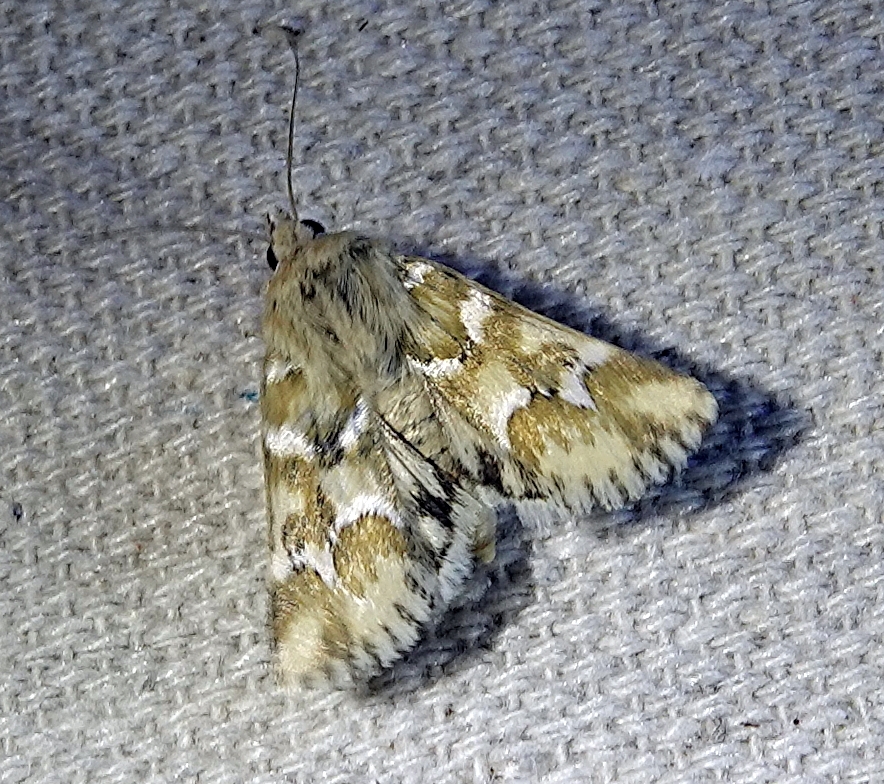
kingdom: Animalia
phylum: Arthropoda
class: Insecta
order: Lepidoptera
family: Noctuidae
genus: Schinia
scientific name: Schinia meadi
